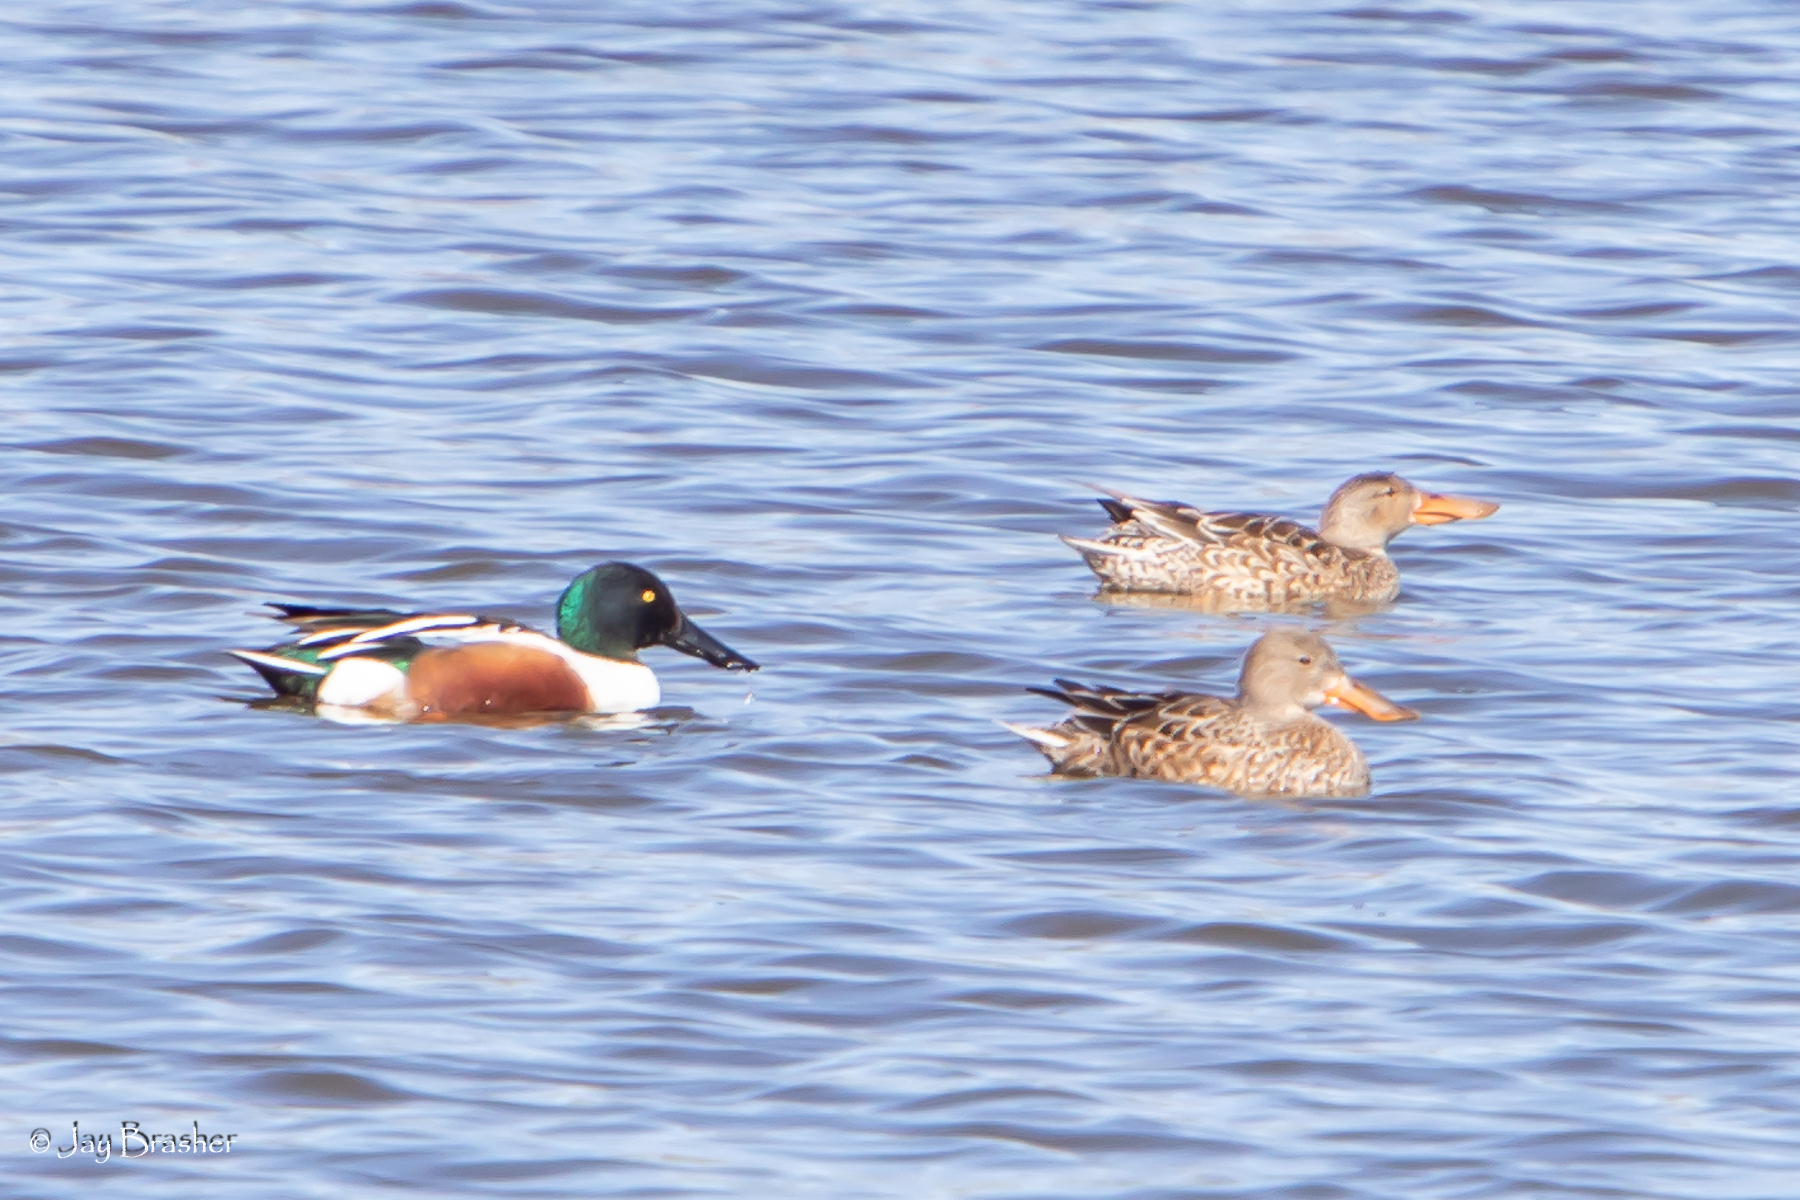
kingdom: Animalia
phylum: Chordata
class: Aves
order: Anseriformes
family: Anatidae
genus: Spatula
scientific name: Spatula clypeata
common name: Northern shoveler
